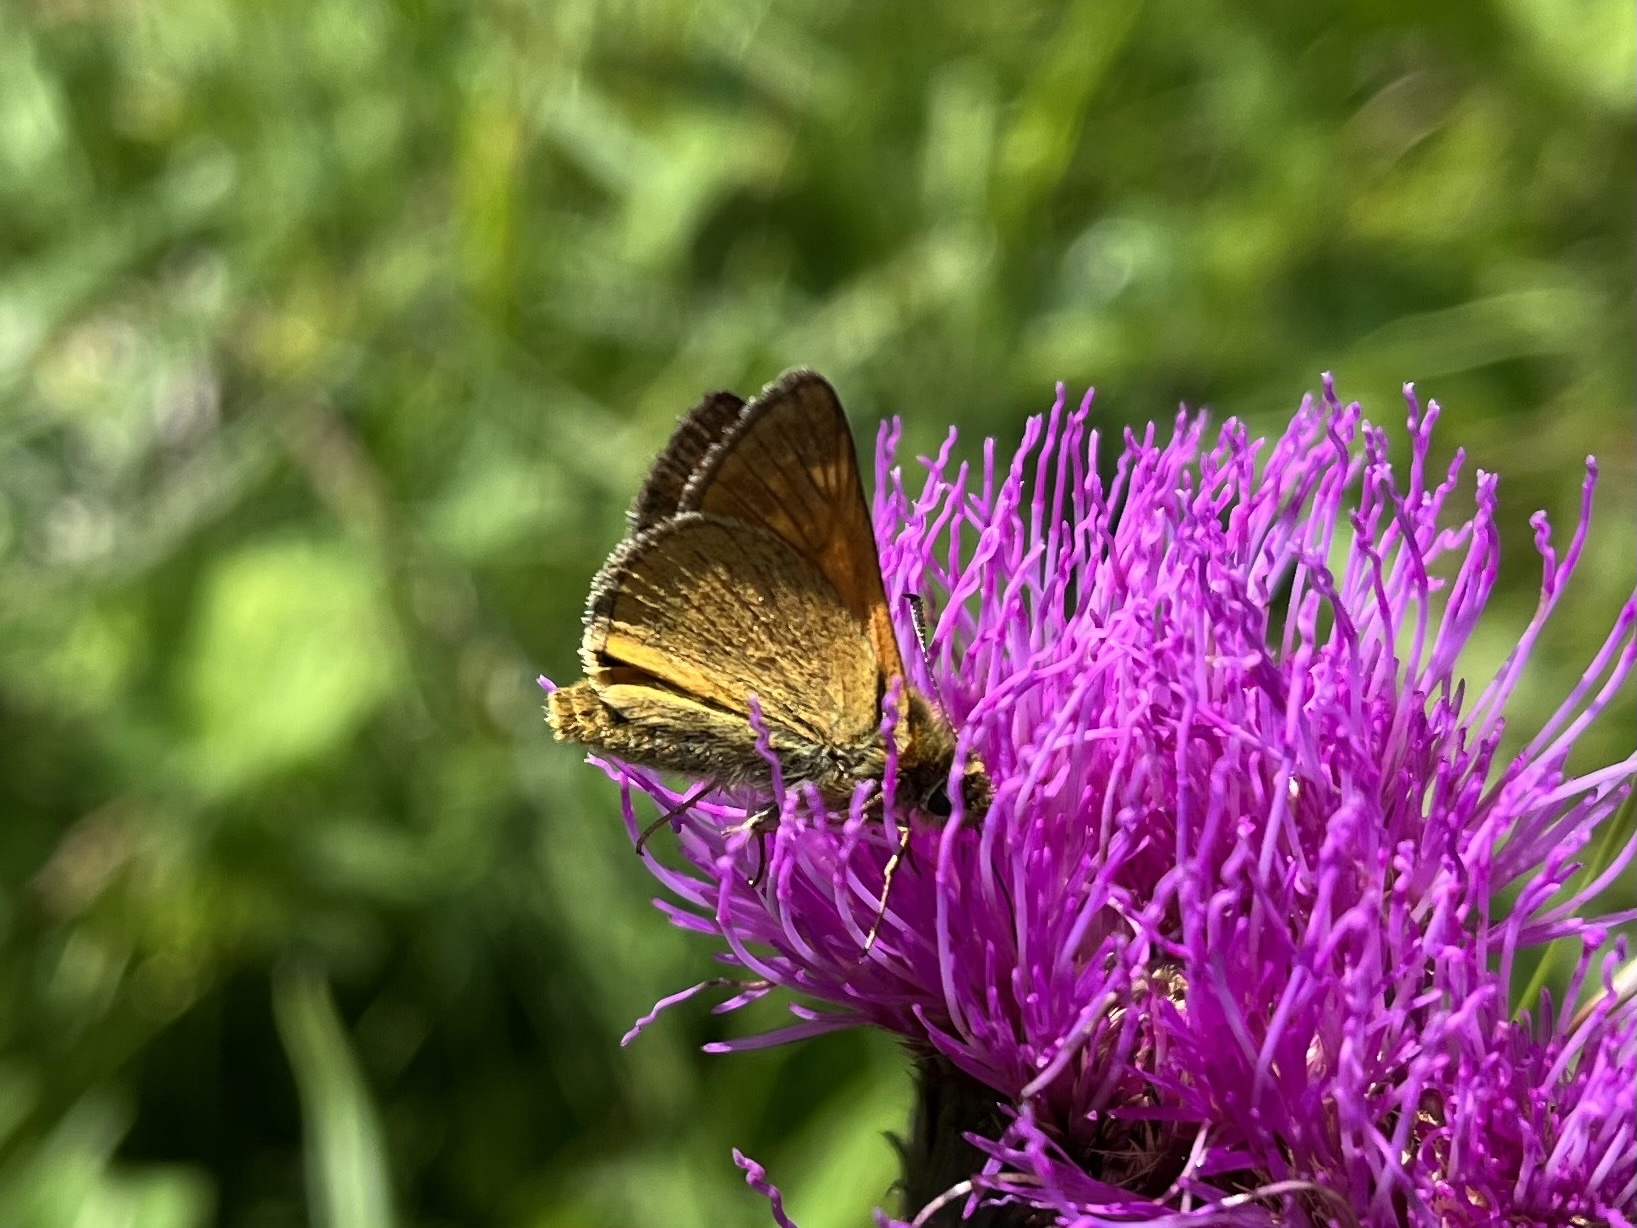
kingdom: Animalia
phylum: Arthropoda
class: Insecta
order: Lepidoptera
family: Hesperiidae
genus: Ochlodes
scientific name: Ochlodes venata
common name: Large skipper
